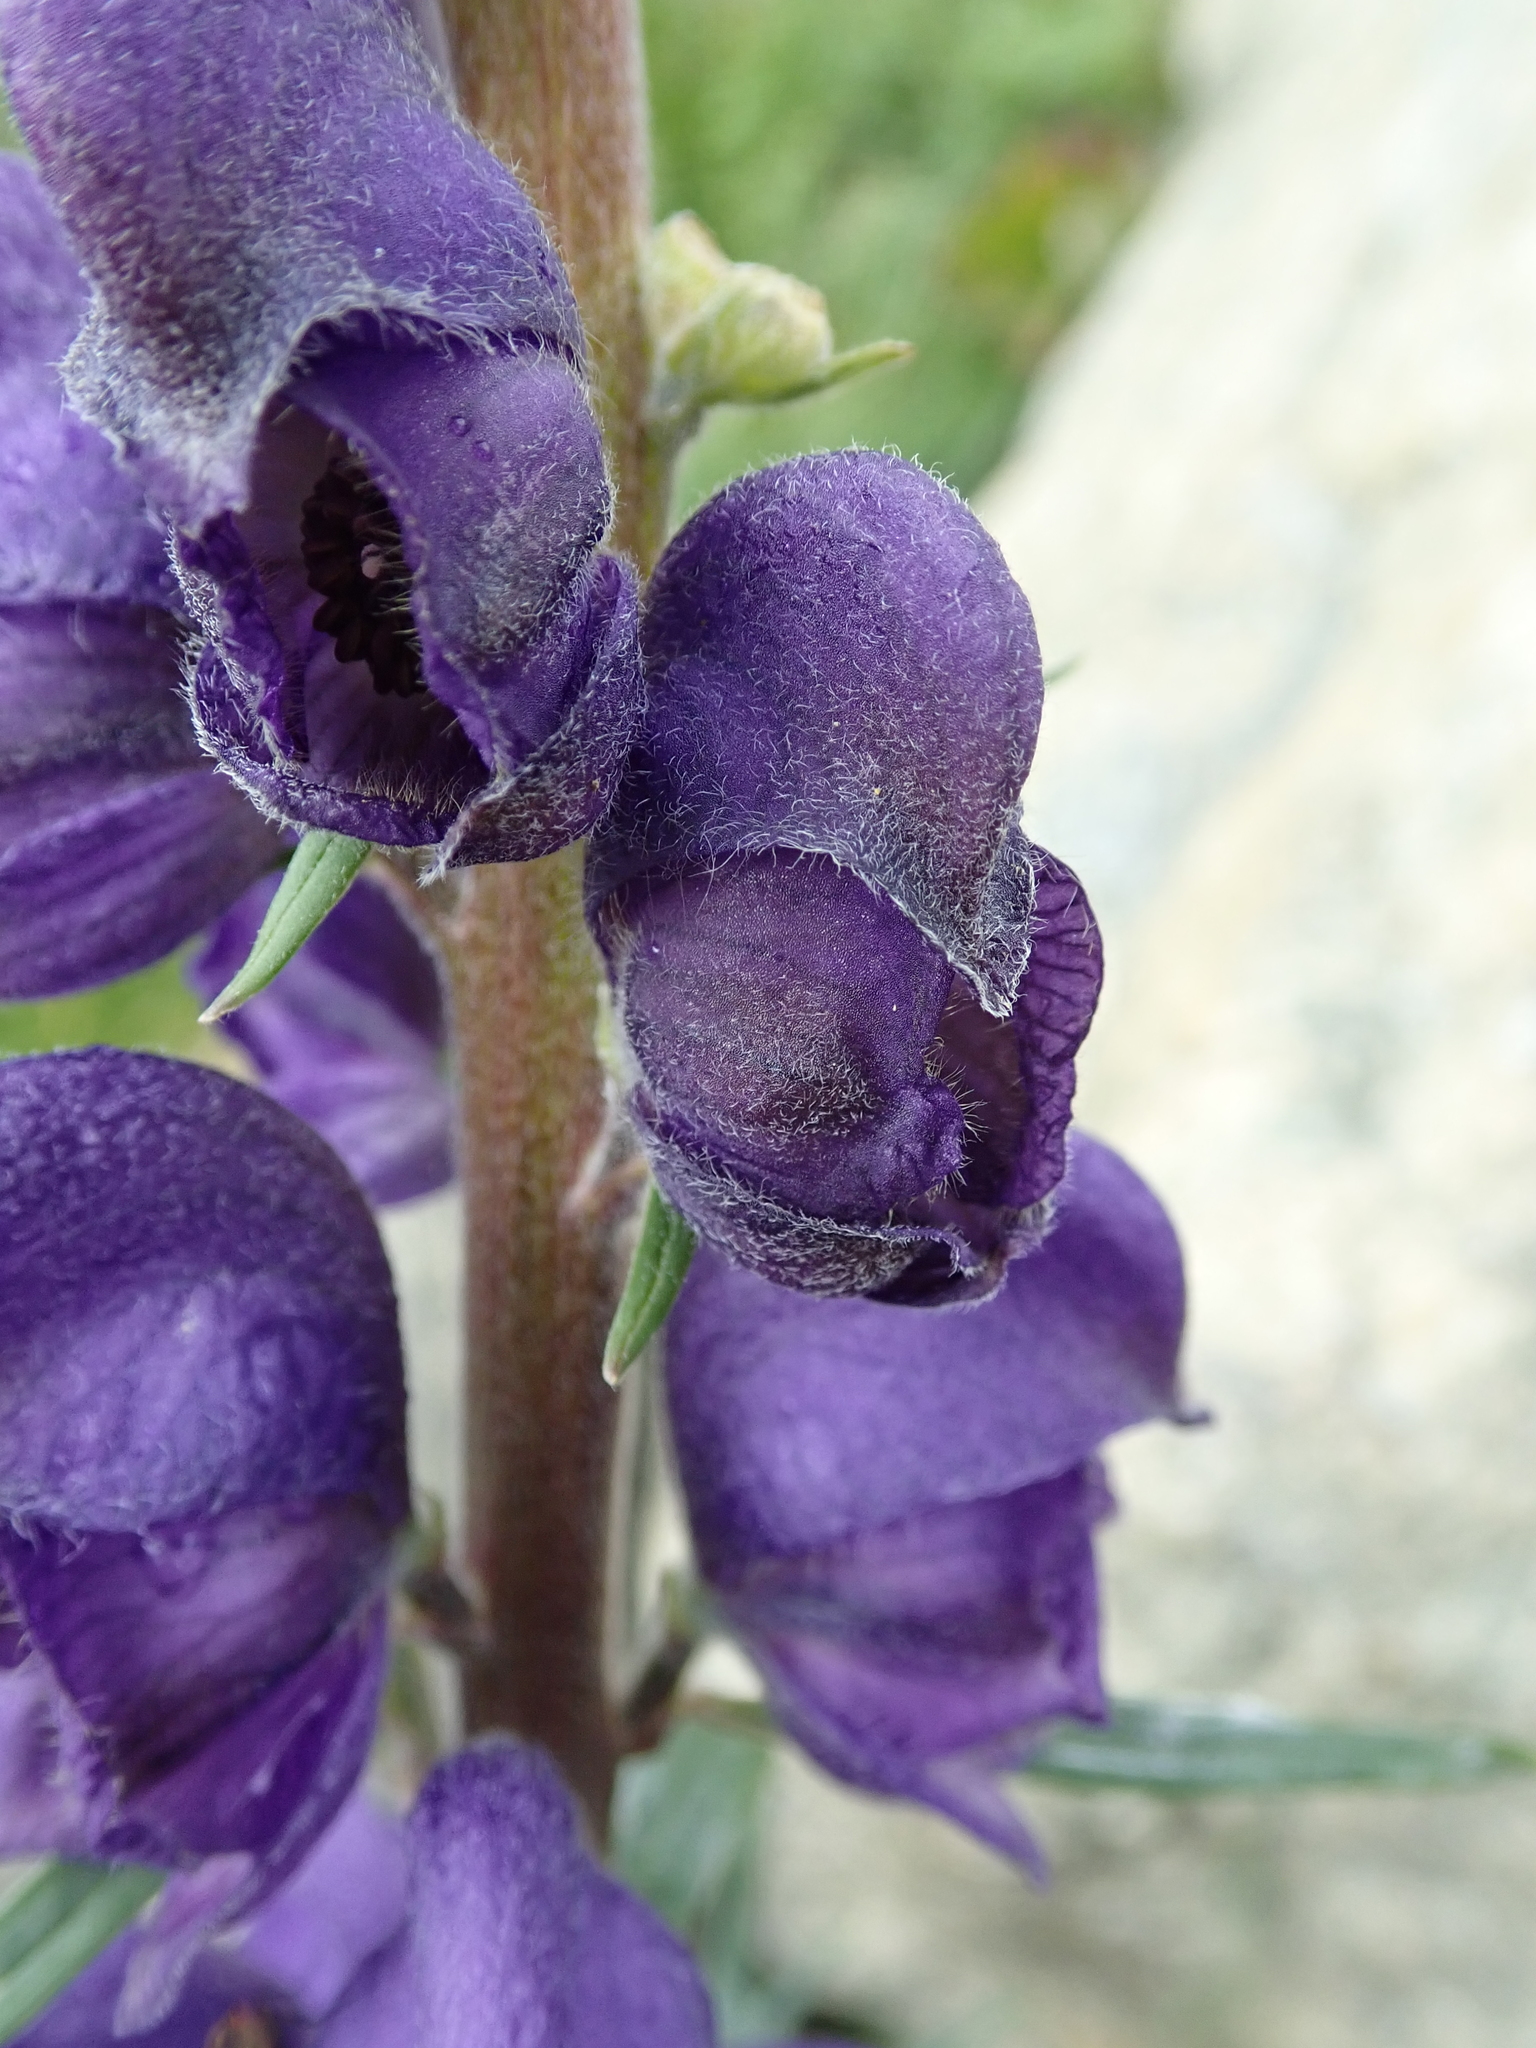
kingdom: Plantae
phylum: Tracheophyta
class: Magnoliopsida
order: Ranunculales
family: Ranunculaceae
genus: Aconitum
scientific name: Aconitum napellus
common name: Garden monkshood
